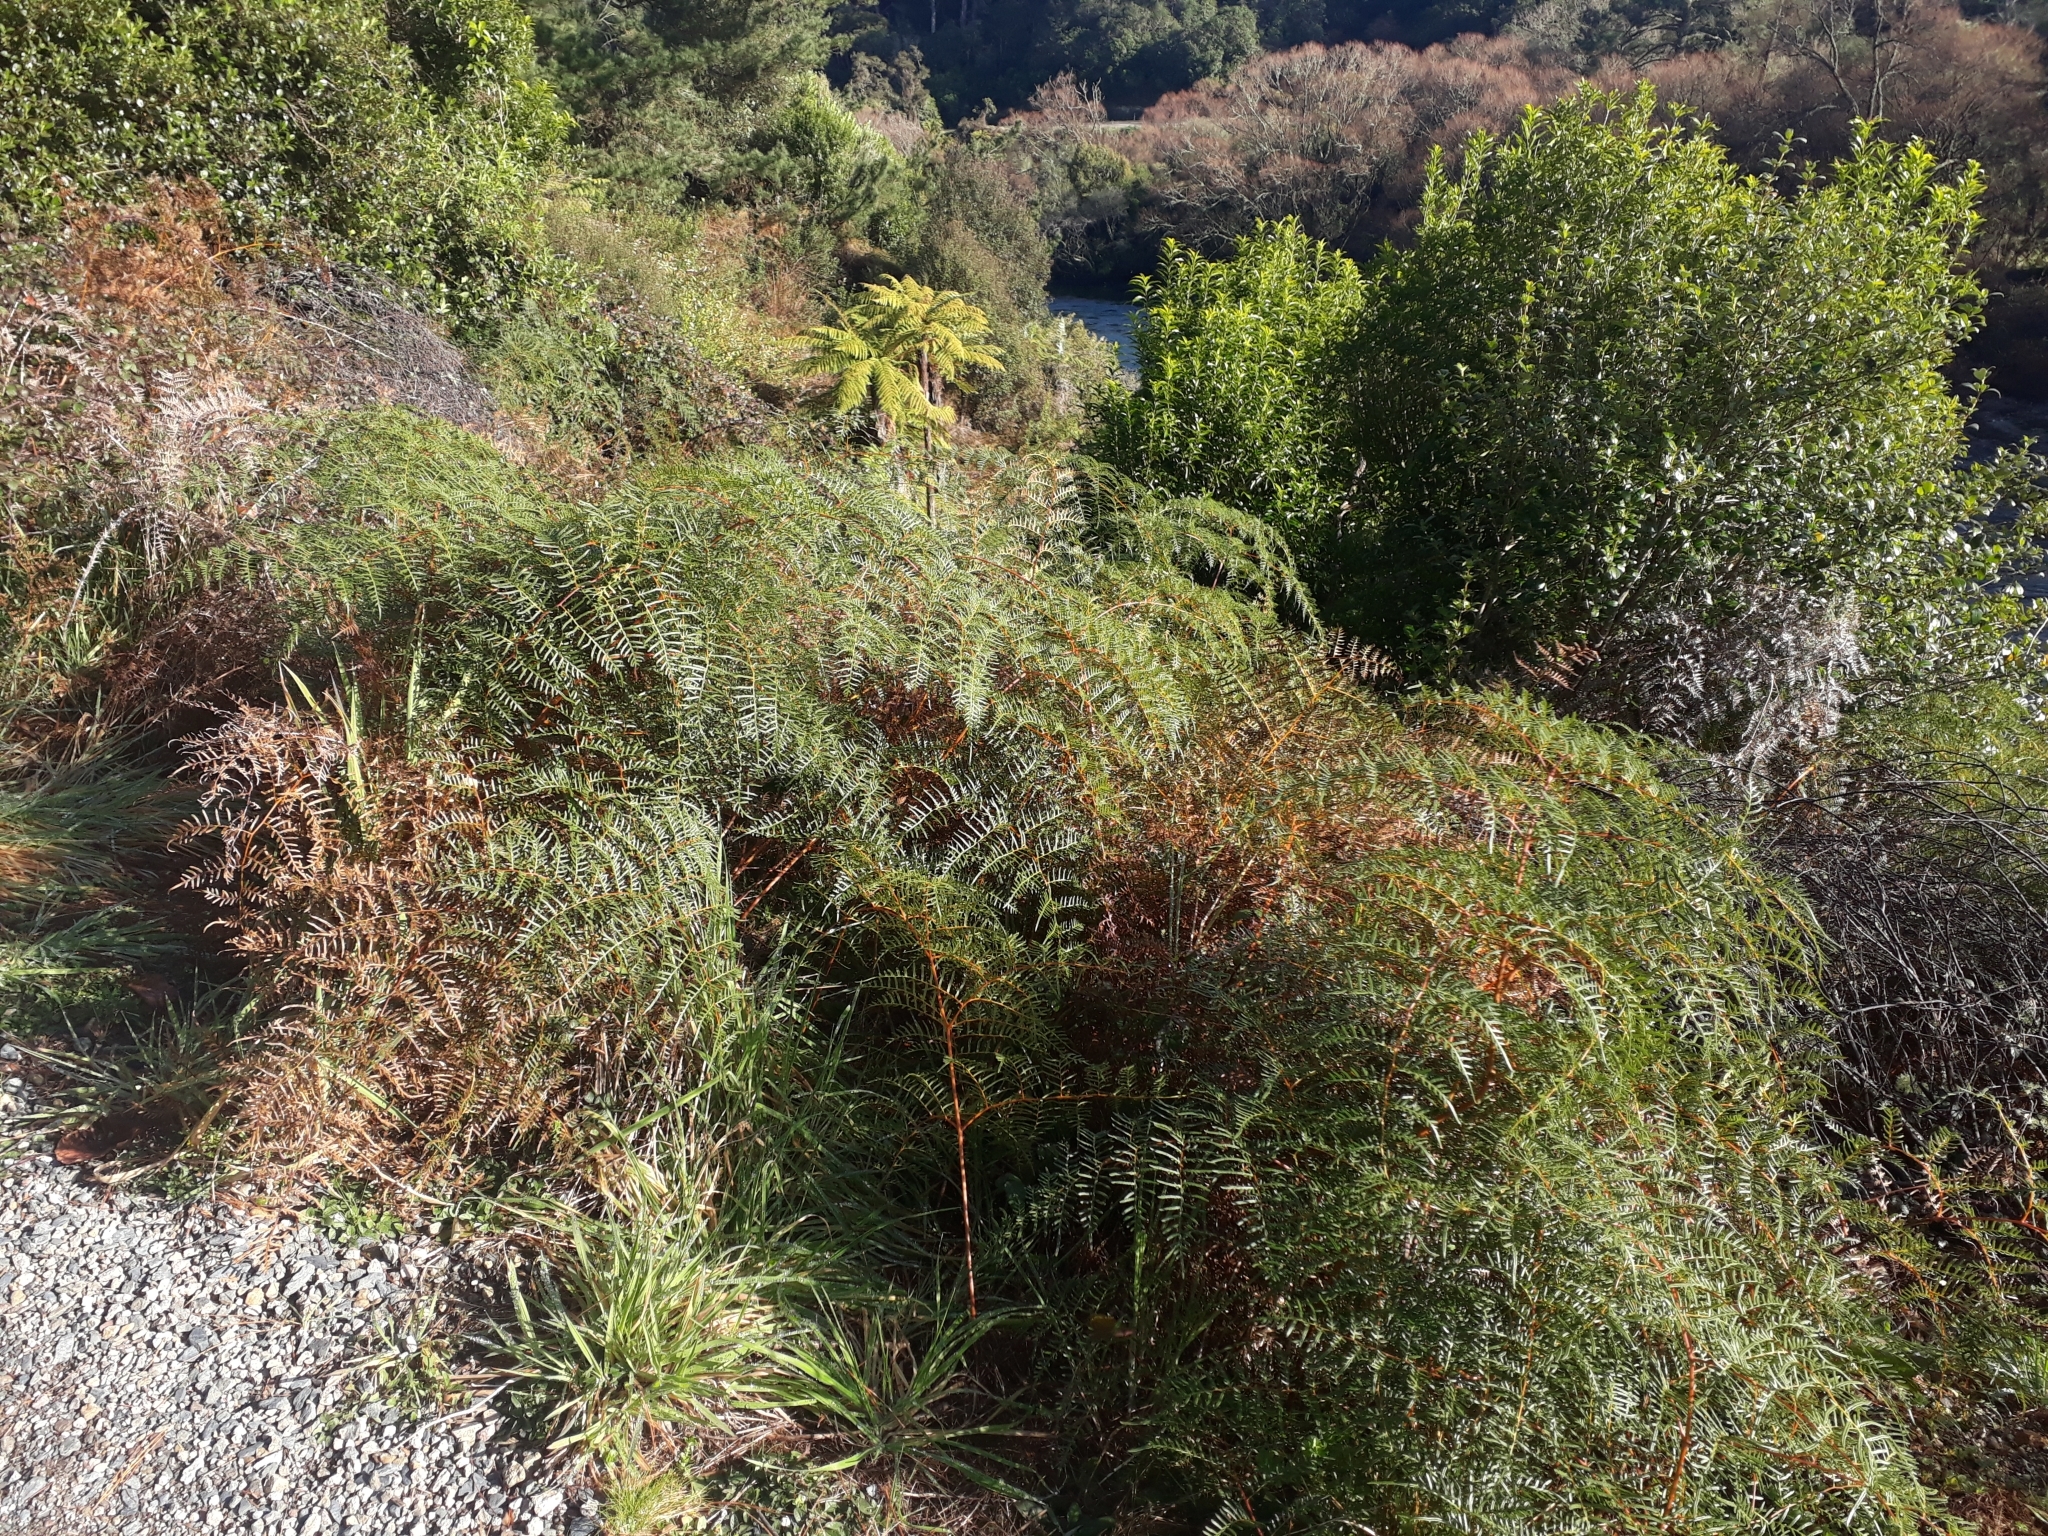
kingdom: Plantae
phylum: Tracheophyta
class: Polypodiopsida
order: Polypodiales
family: Dennstaedtiaceae
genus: Pteridium
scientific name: Pteridium esculentum
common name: Bracken fern
